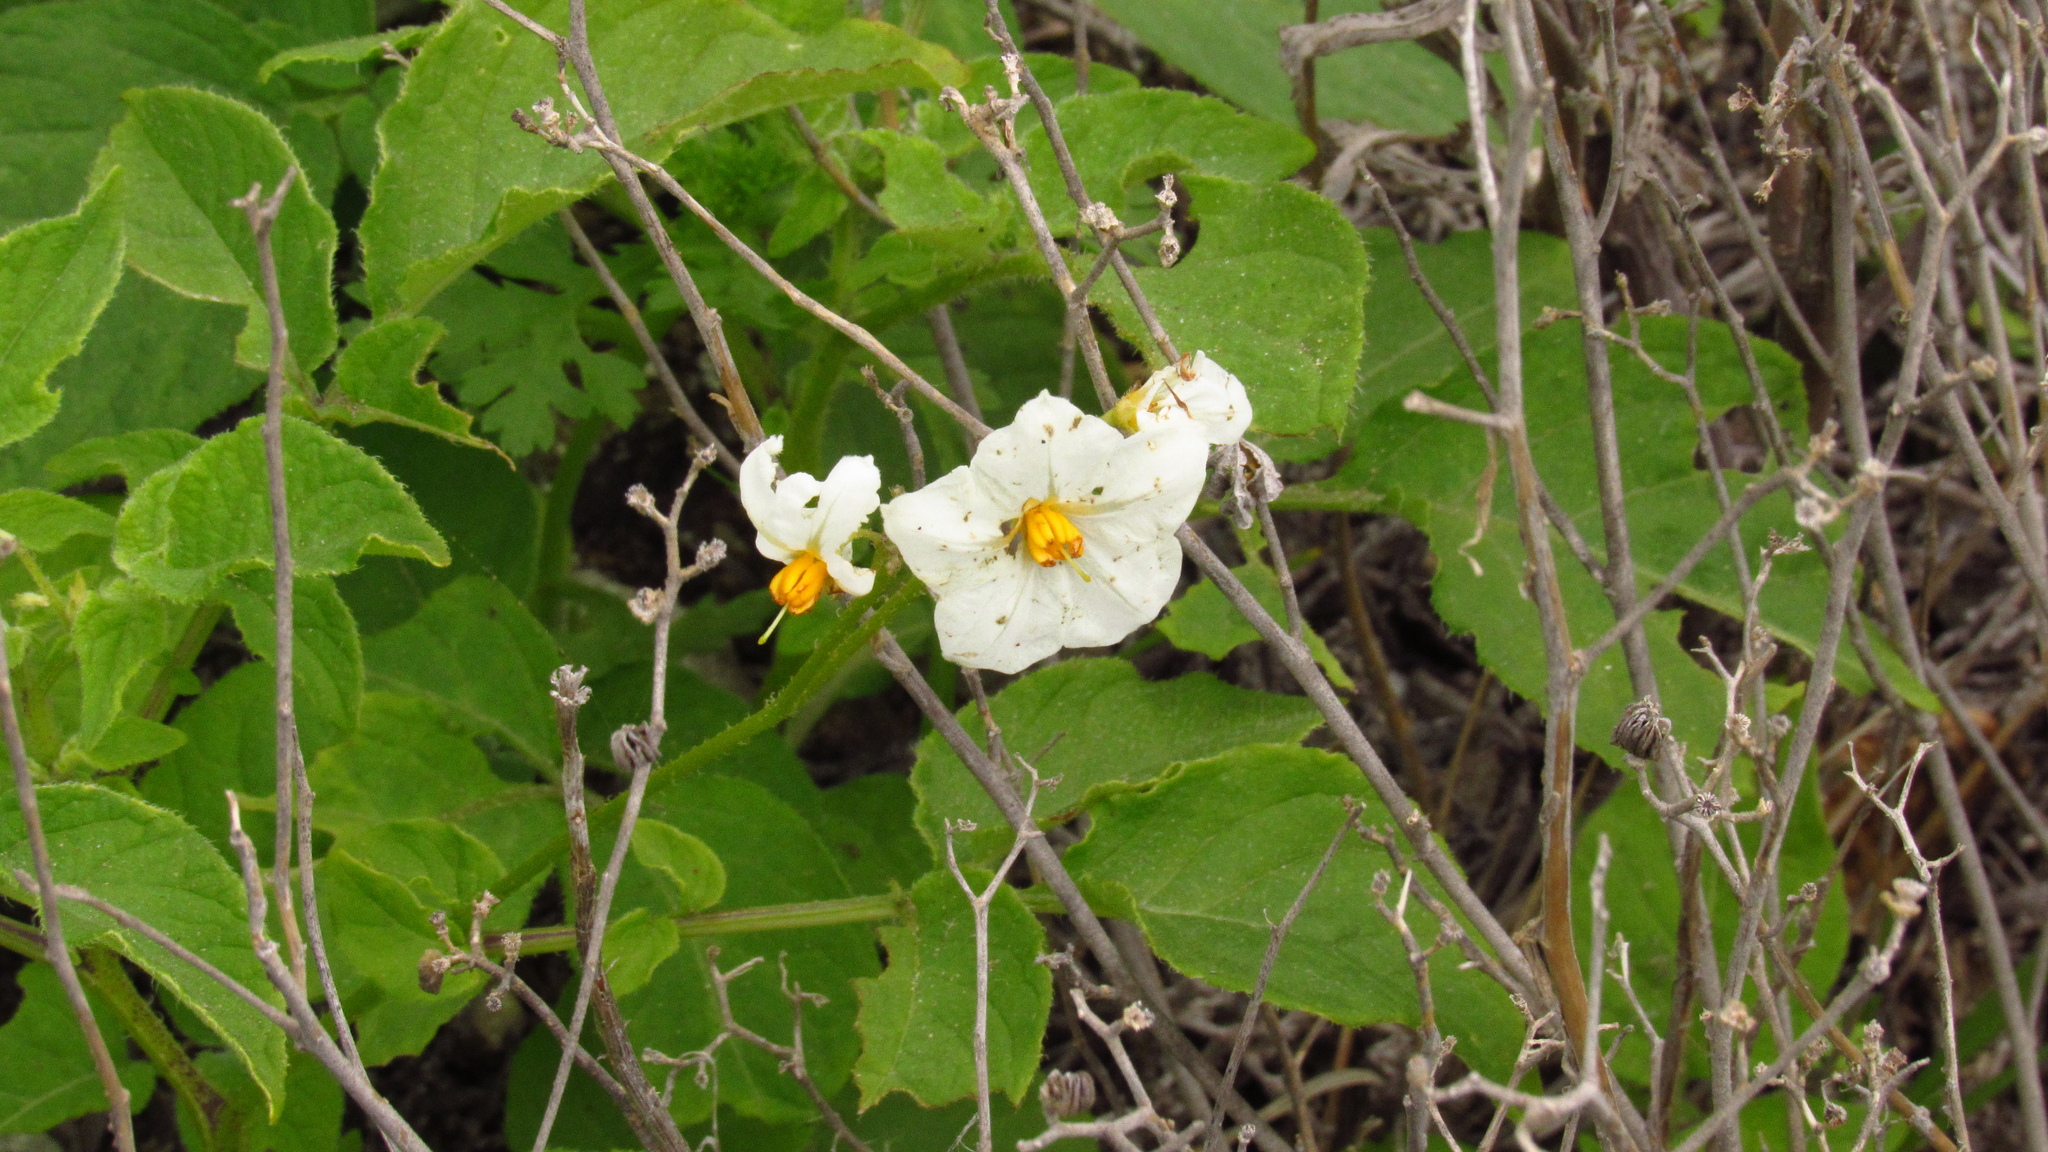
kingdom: Plantae
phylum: Tracheophyta
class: Magnoliopsida
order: Solanales
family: Solanaceae
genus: Solanum
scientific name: Solanum maglia
